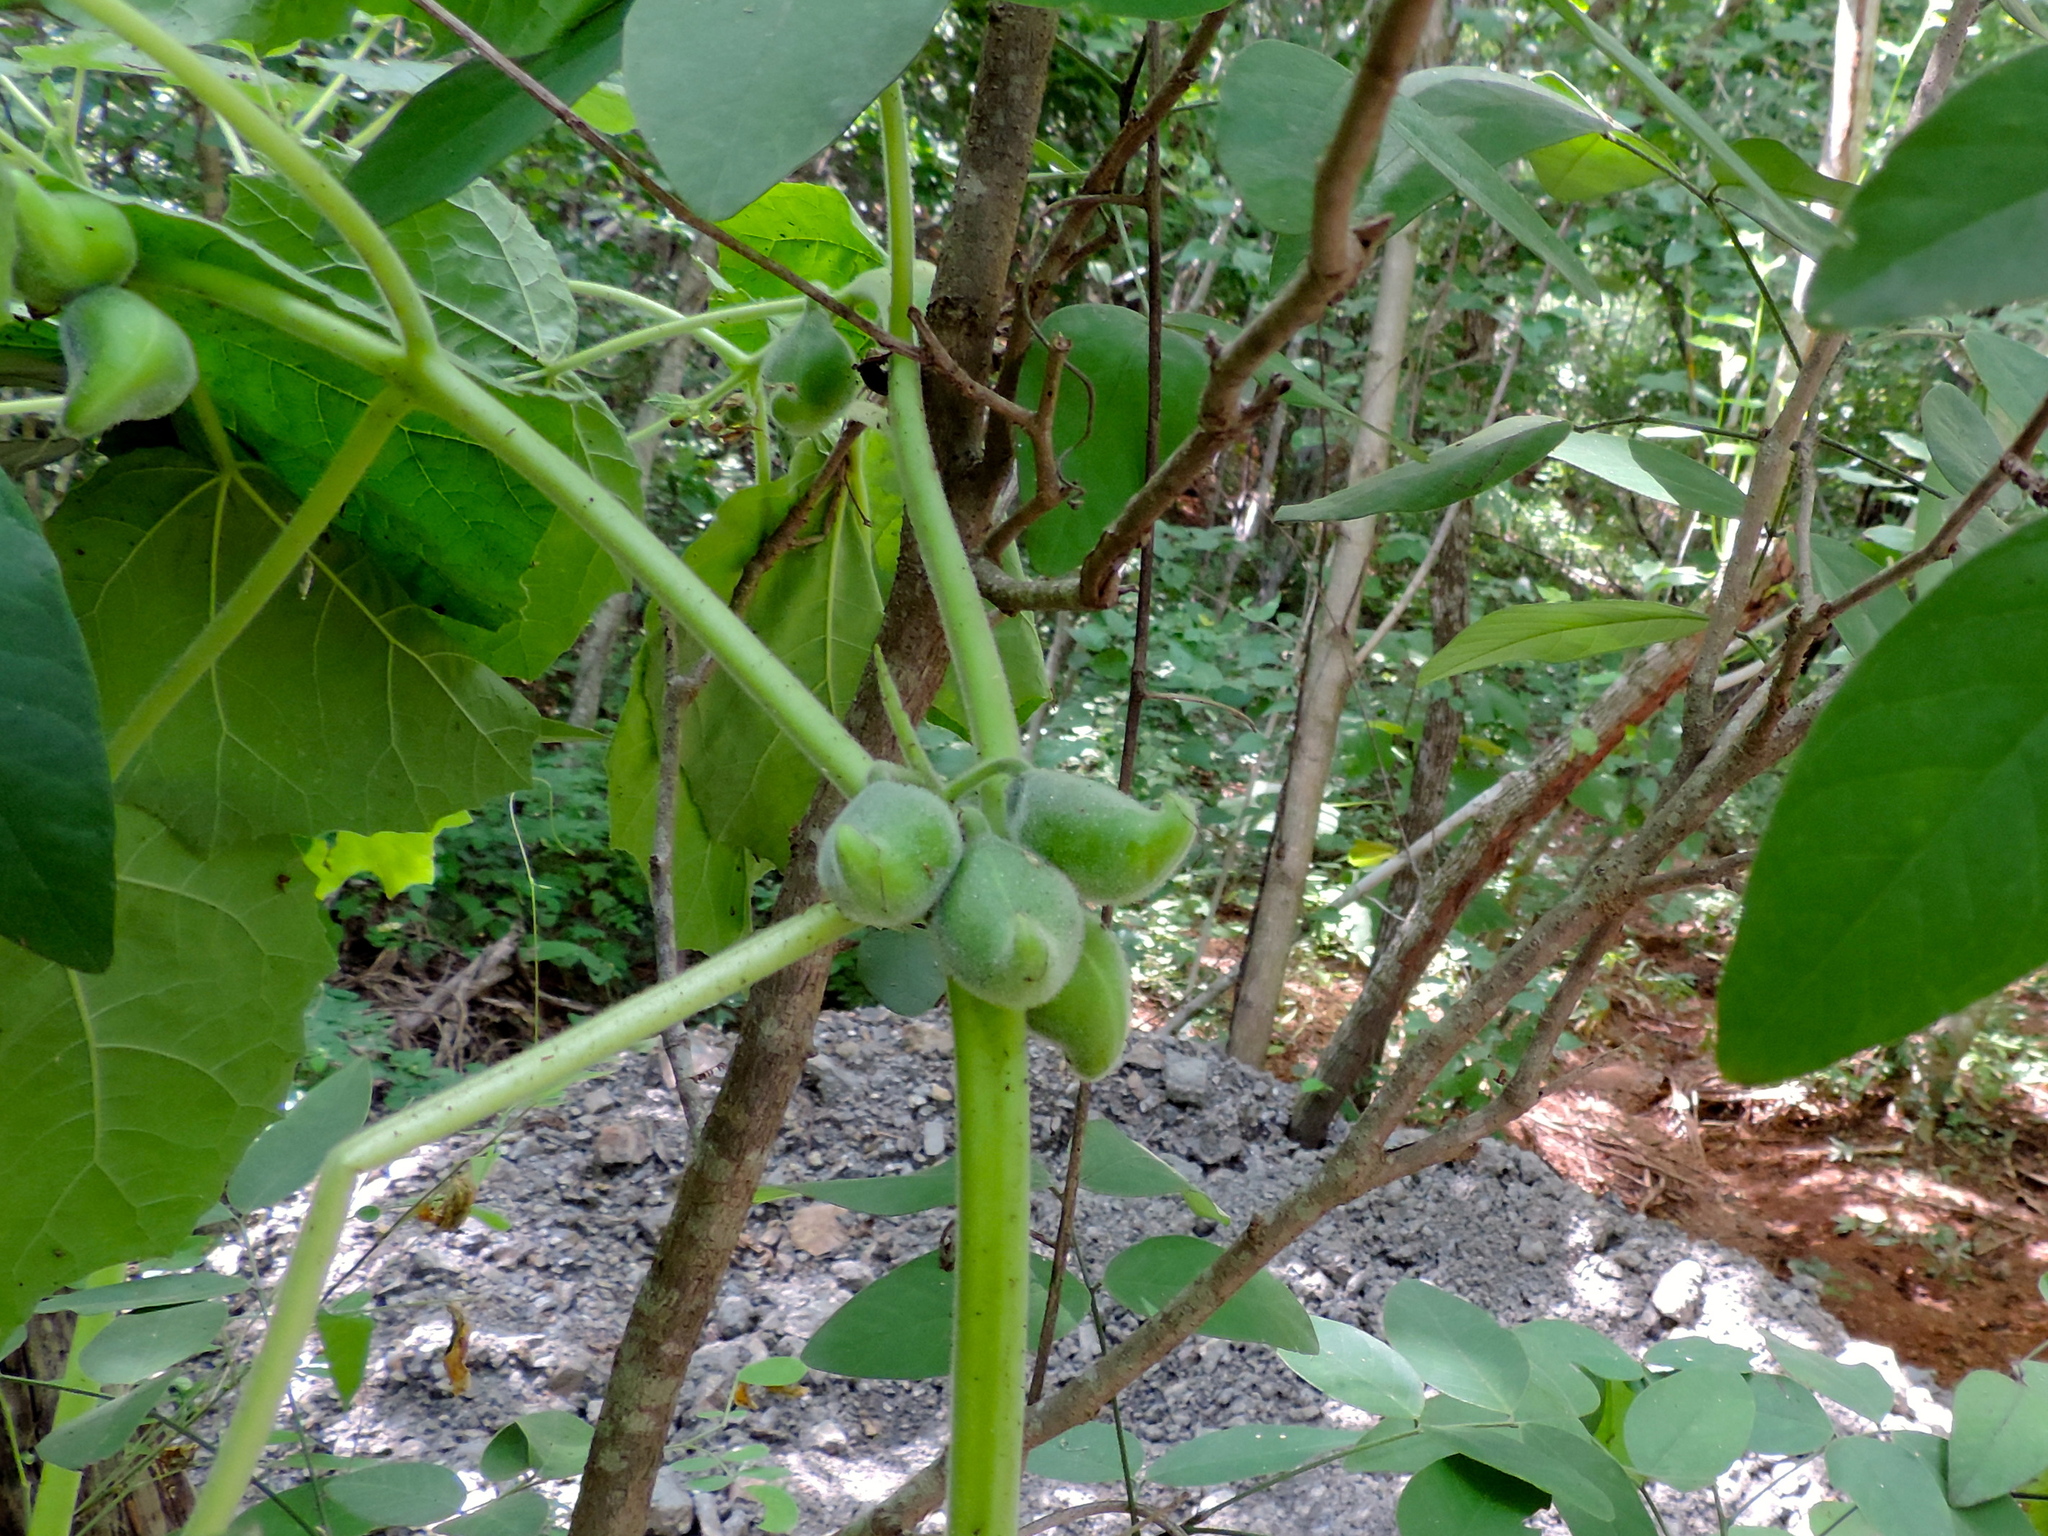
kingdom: Plantae
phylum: Tracheophyta
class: Magnoliopsida
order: Lamiales
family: Martyniaceae
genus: Martynia
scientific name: Martynia annua
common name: Tiger's-claw
